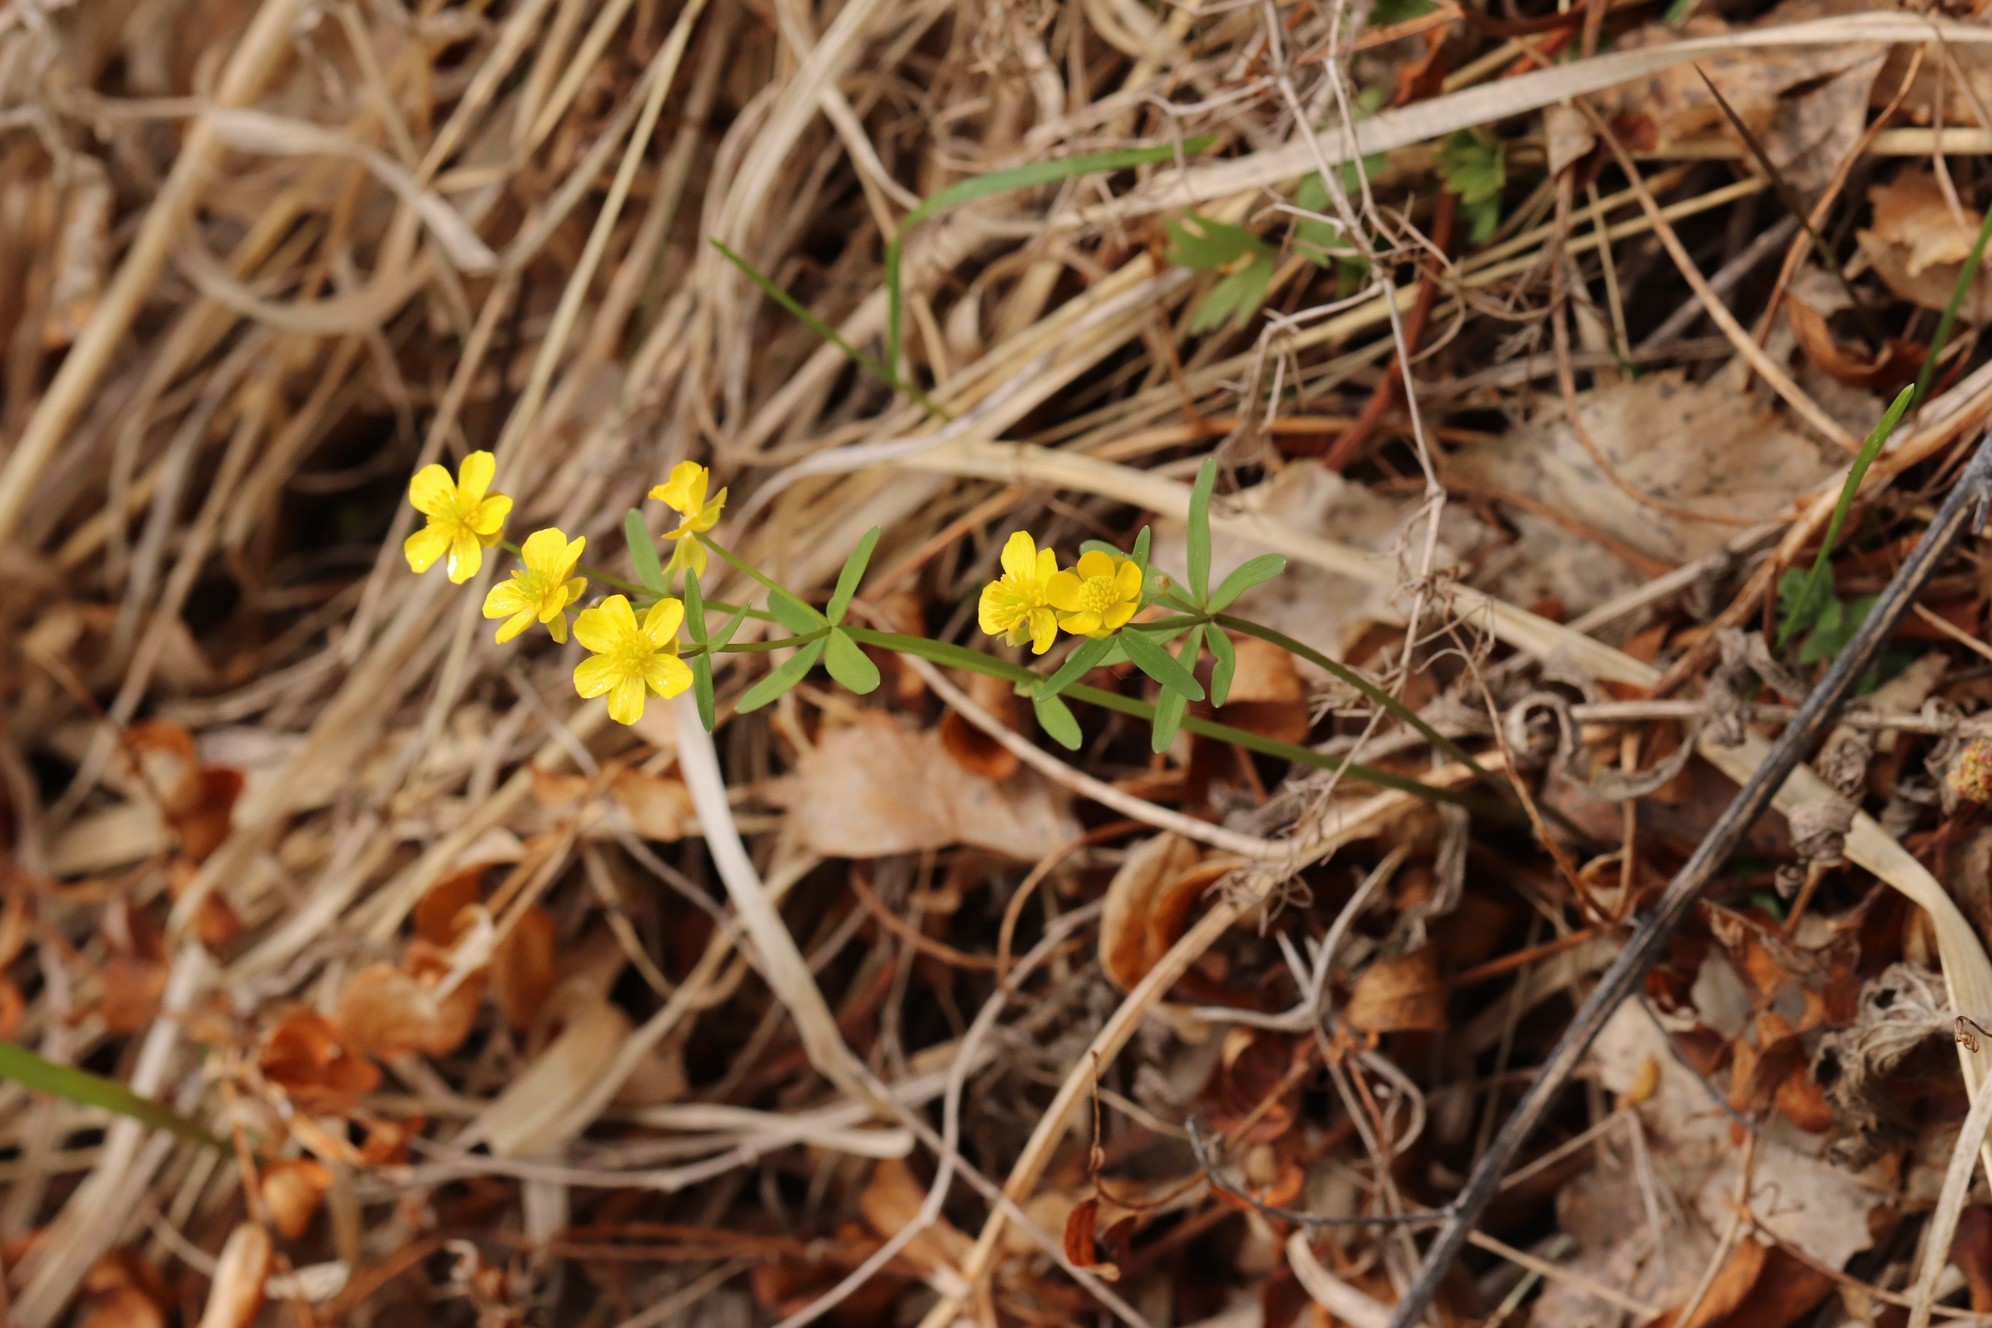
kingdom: Plantae
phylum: Tracheophyta
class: Magnoliopsida
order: Ranunculales
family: Ranunculaceae
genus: Ranunculus
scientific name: Ranunculus monophyllus
